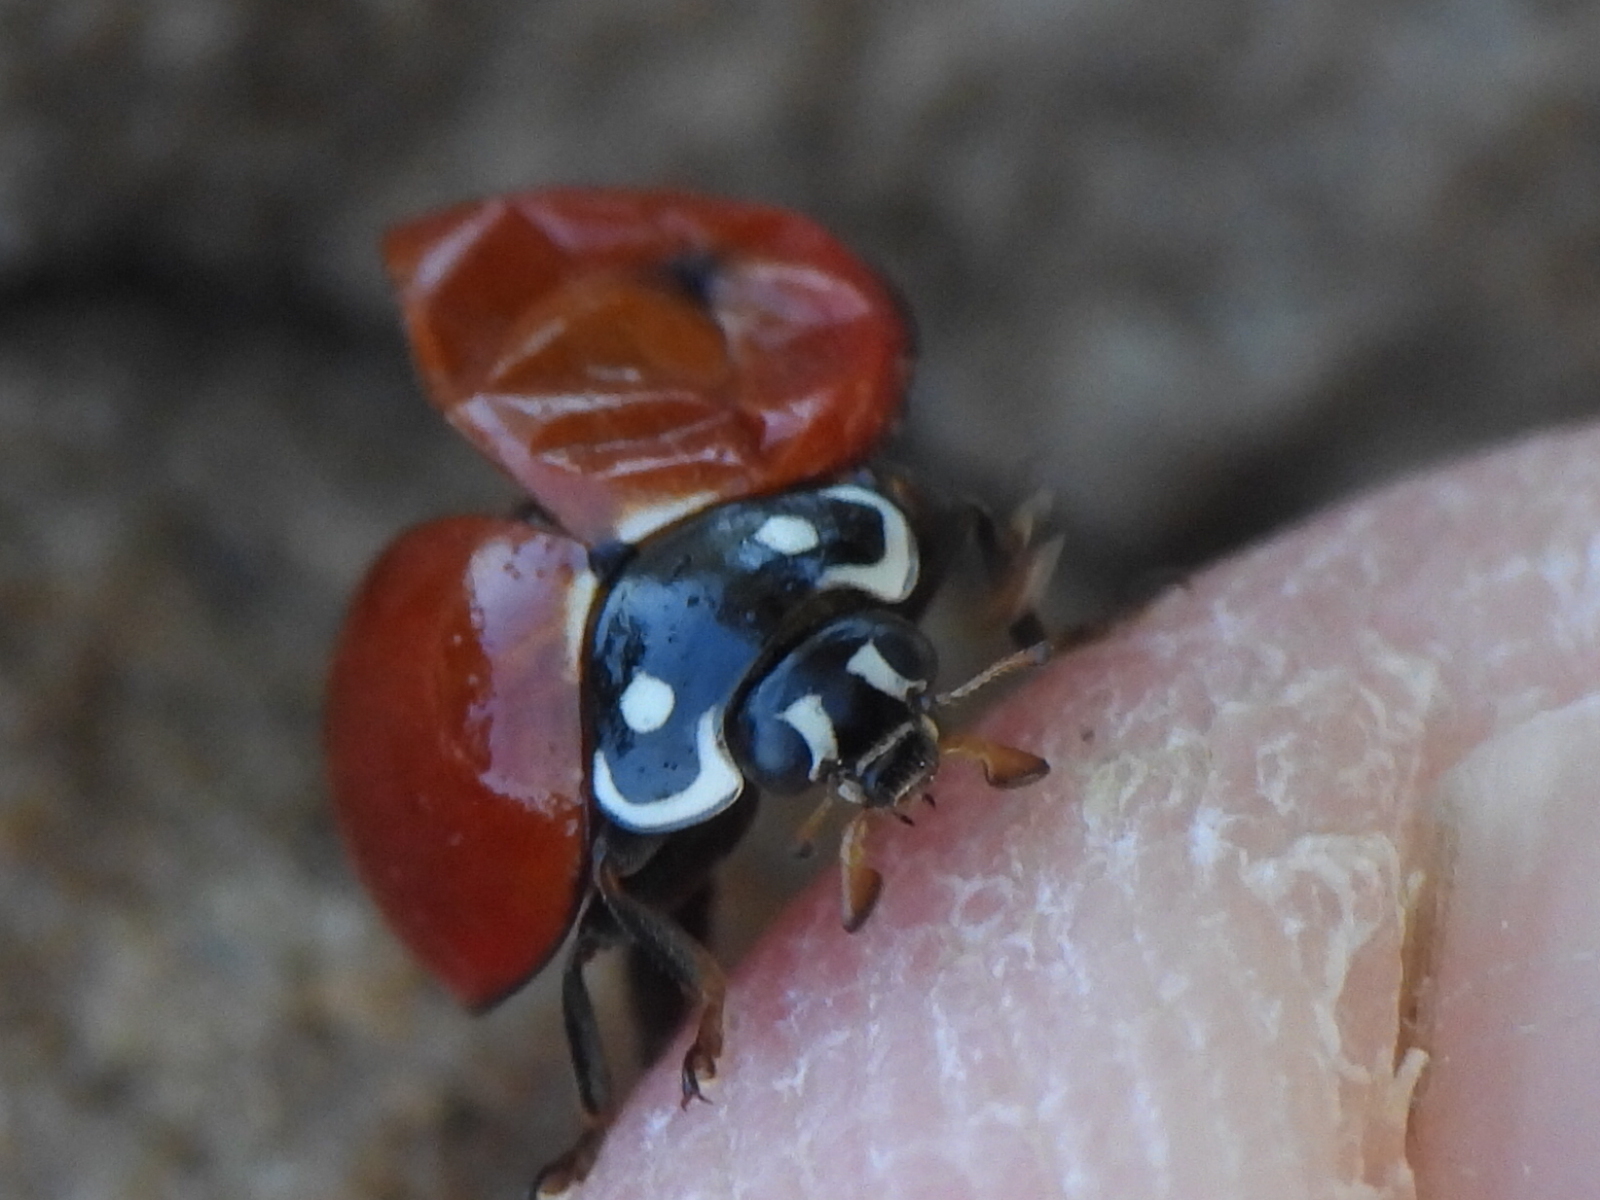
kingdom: Animalia
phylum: Arthropoda
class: Insecta
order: Coleoptera
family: Coccinellidae
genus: Cycloneda
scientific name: Cycloneda sanguinea
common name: Ladybird beetle
